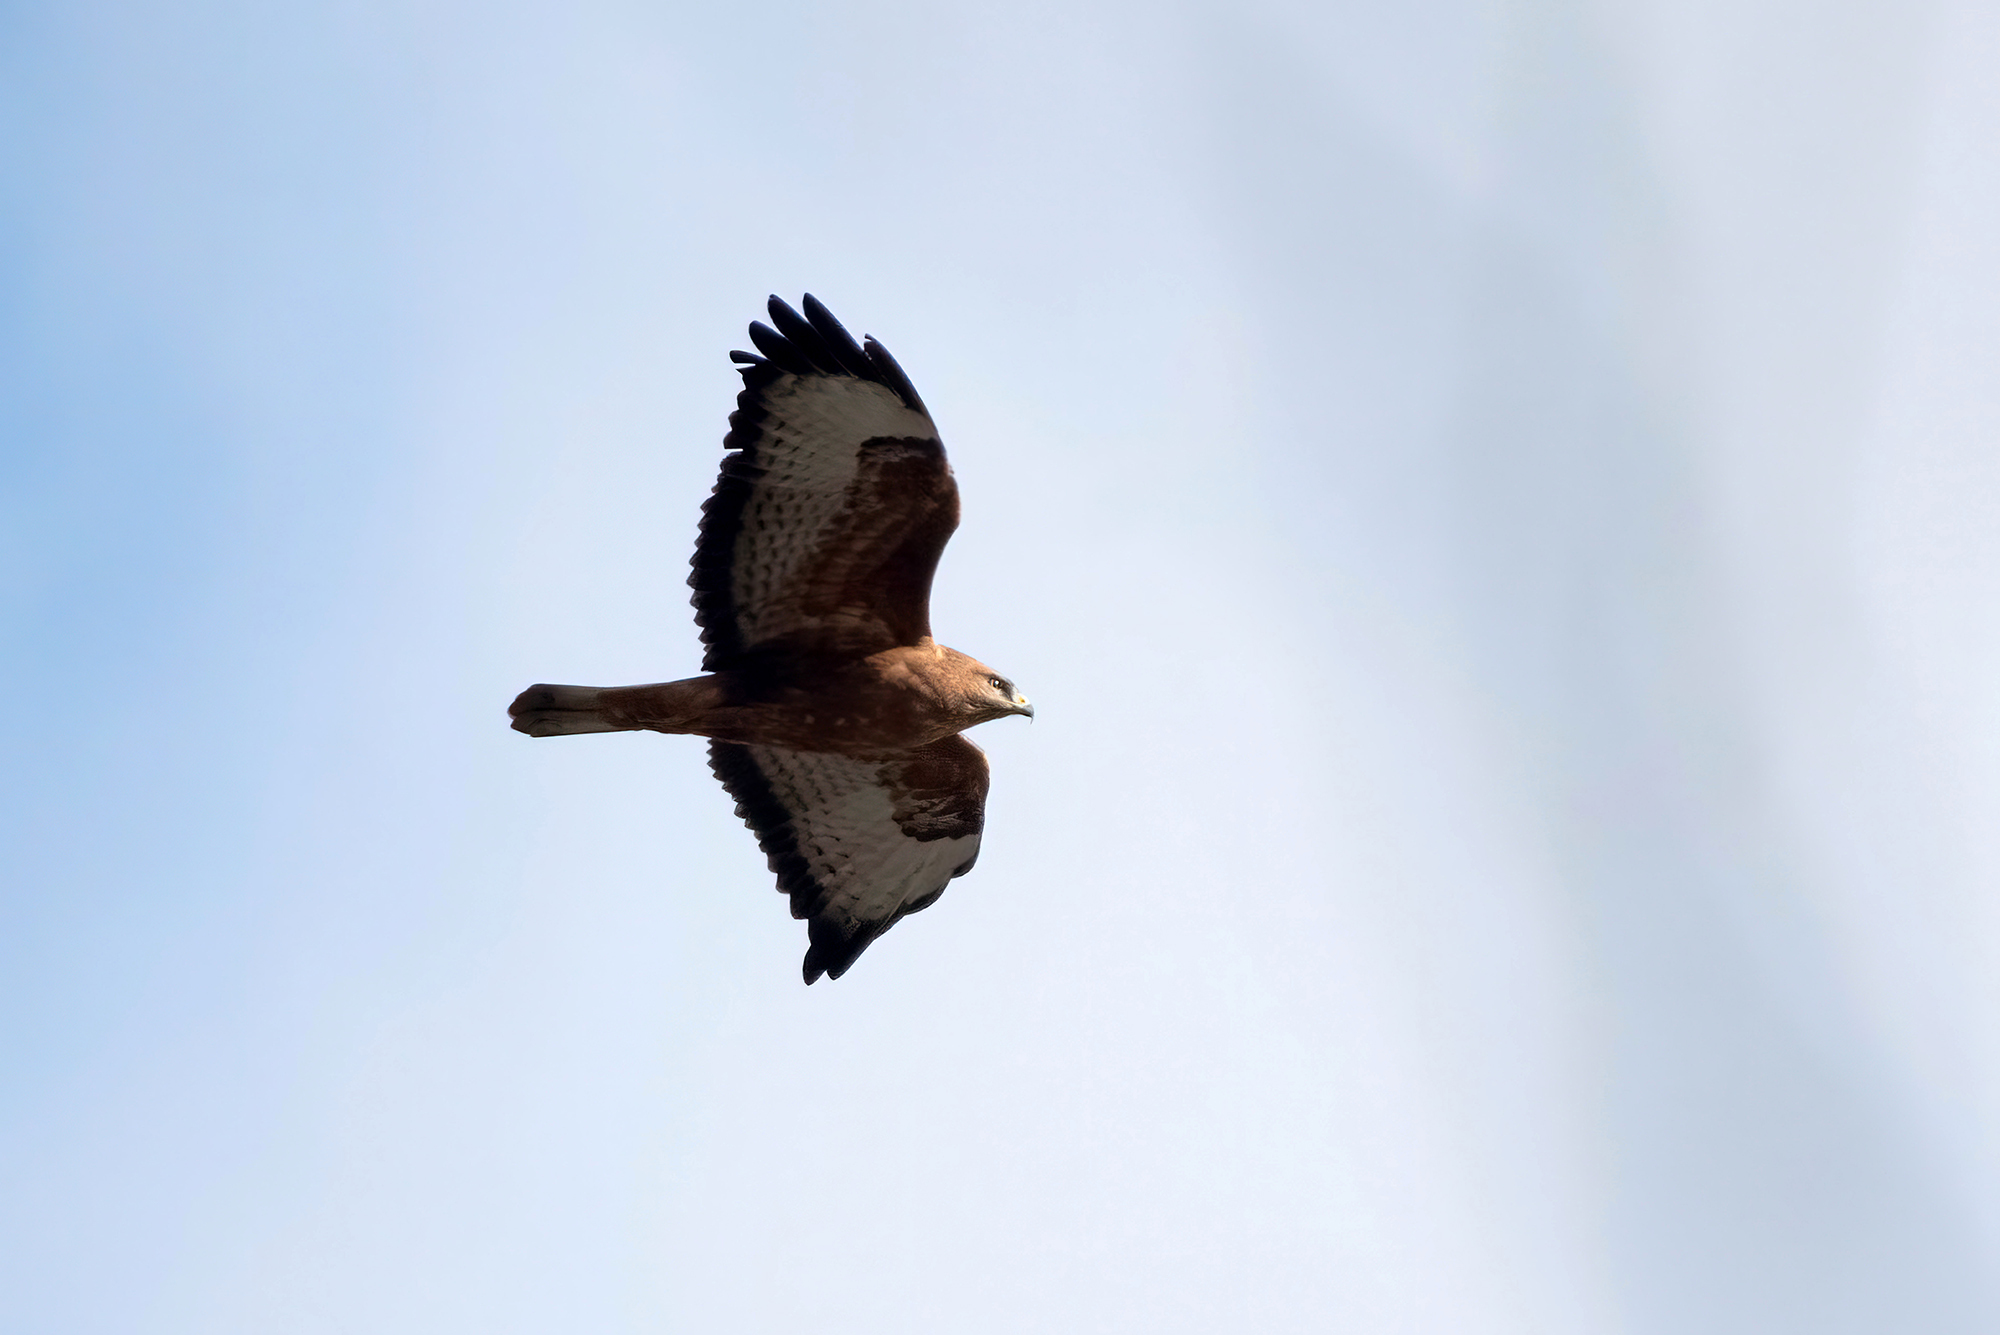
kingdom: Animalia
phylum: Chordata
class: Aves
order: Accipitriformes
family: Accipitridae
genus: Buteo
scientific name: Buteo buteo
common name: Common buzzard
